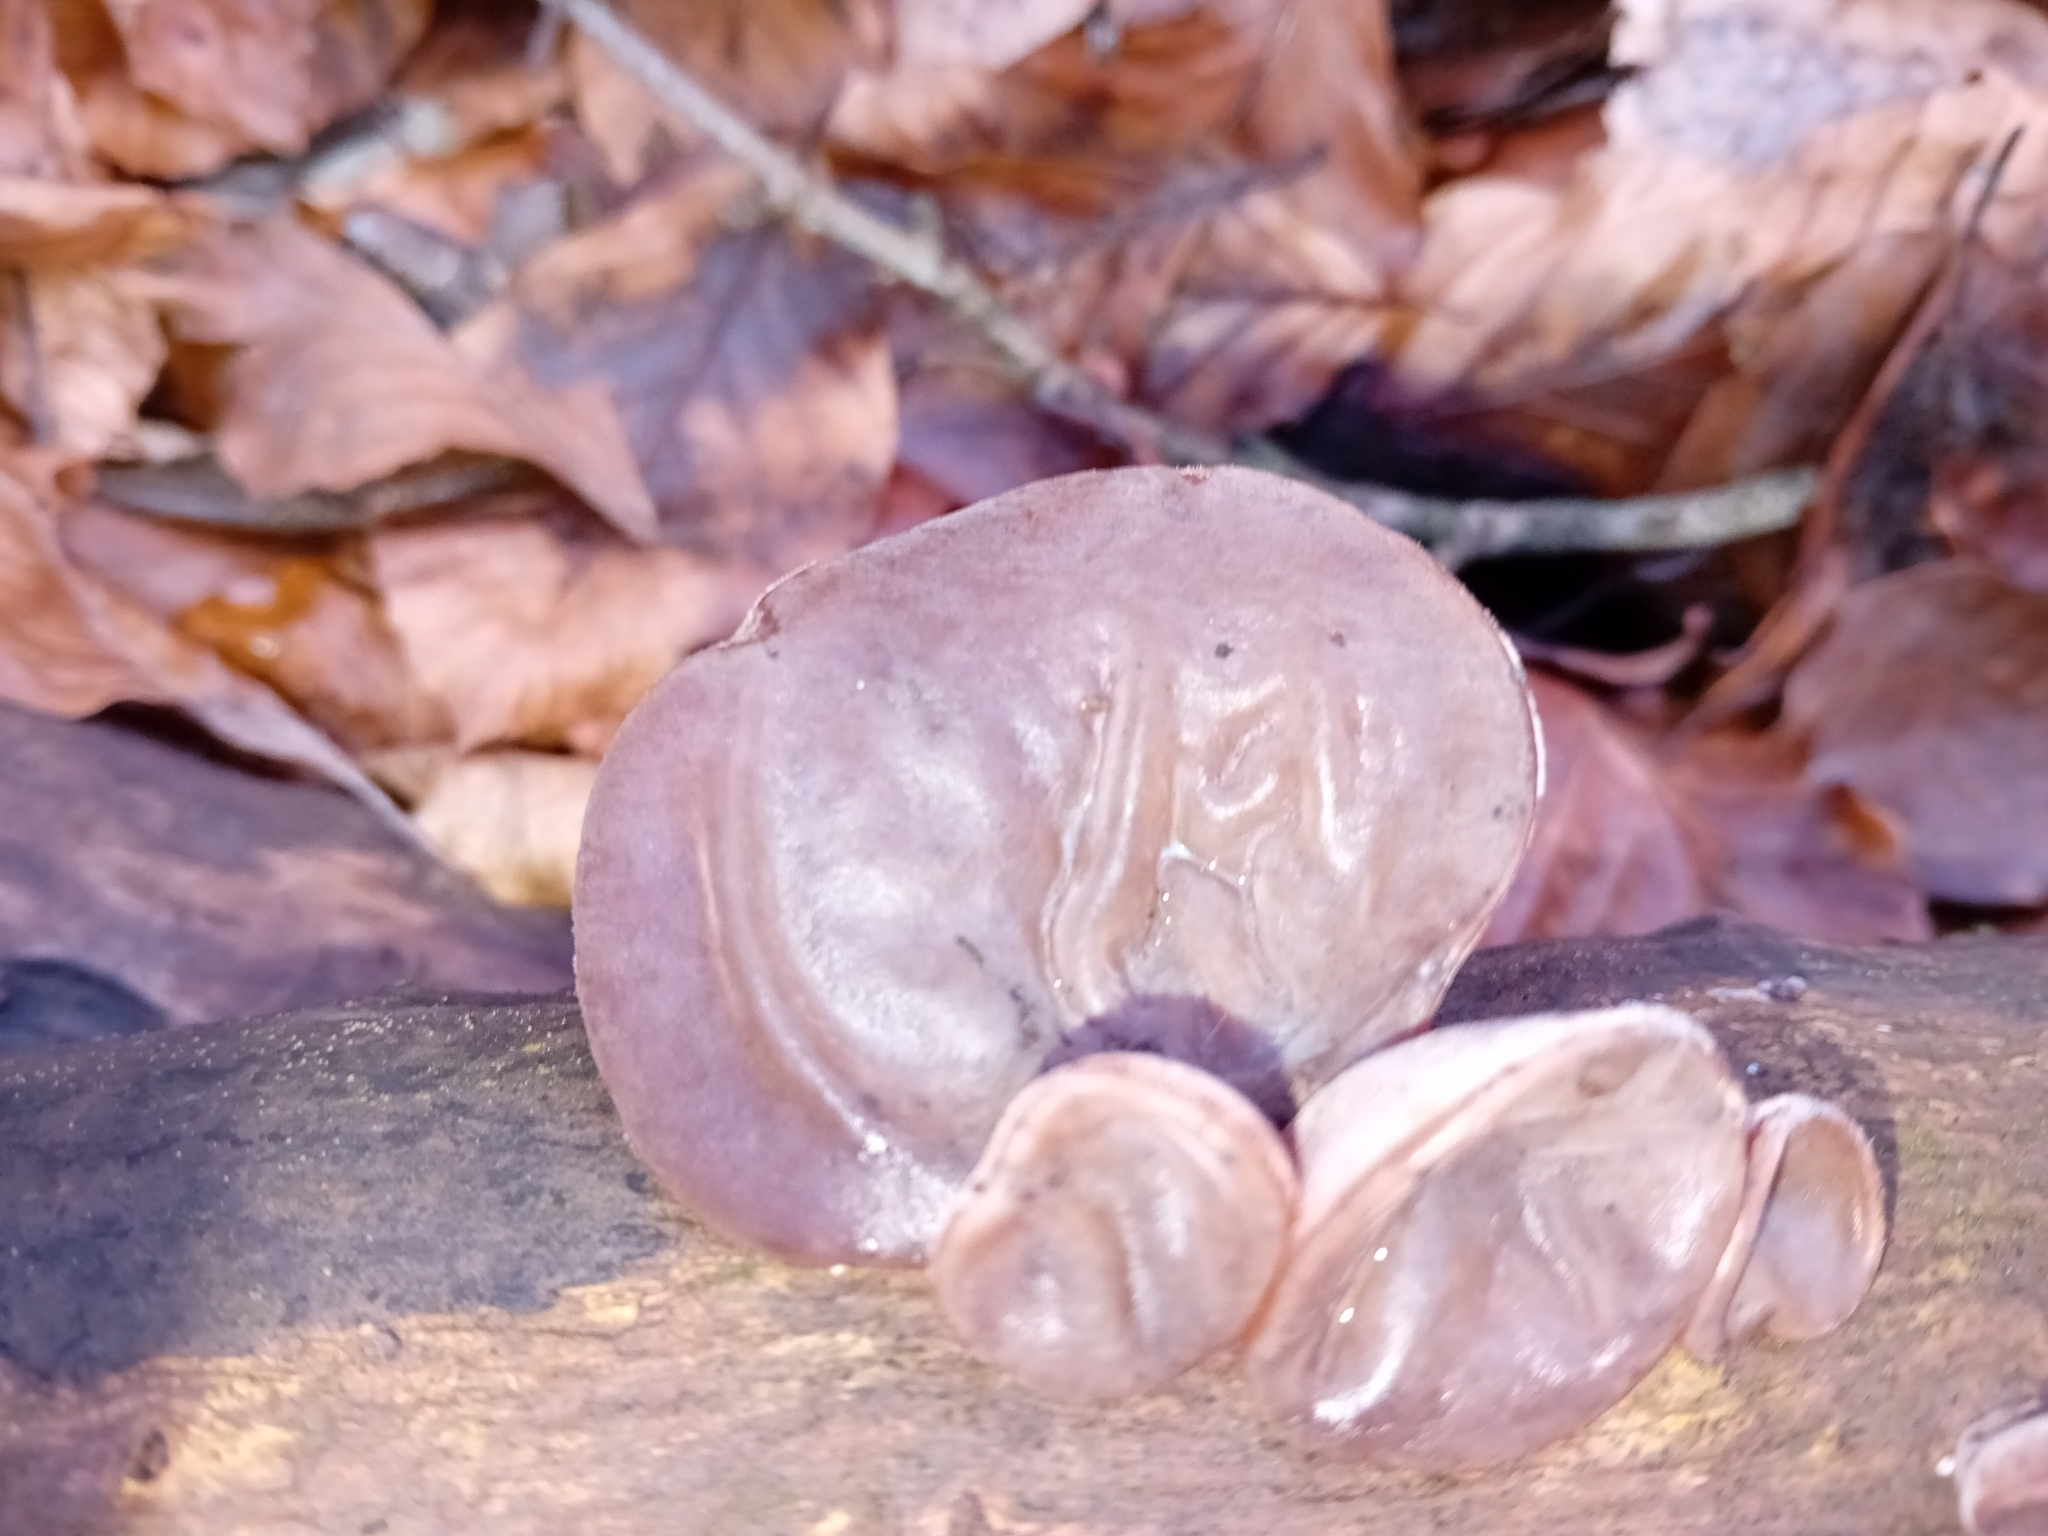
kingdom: Fungi
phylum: Basidiomycota
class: Agaricomycetes
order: Auriculariales
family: Auriculariaceae
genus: Auricularia
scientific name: Auricularia auricula-judae
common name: Jelly ear
